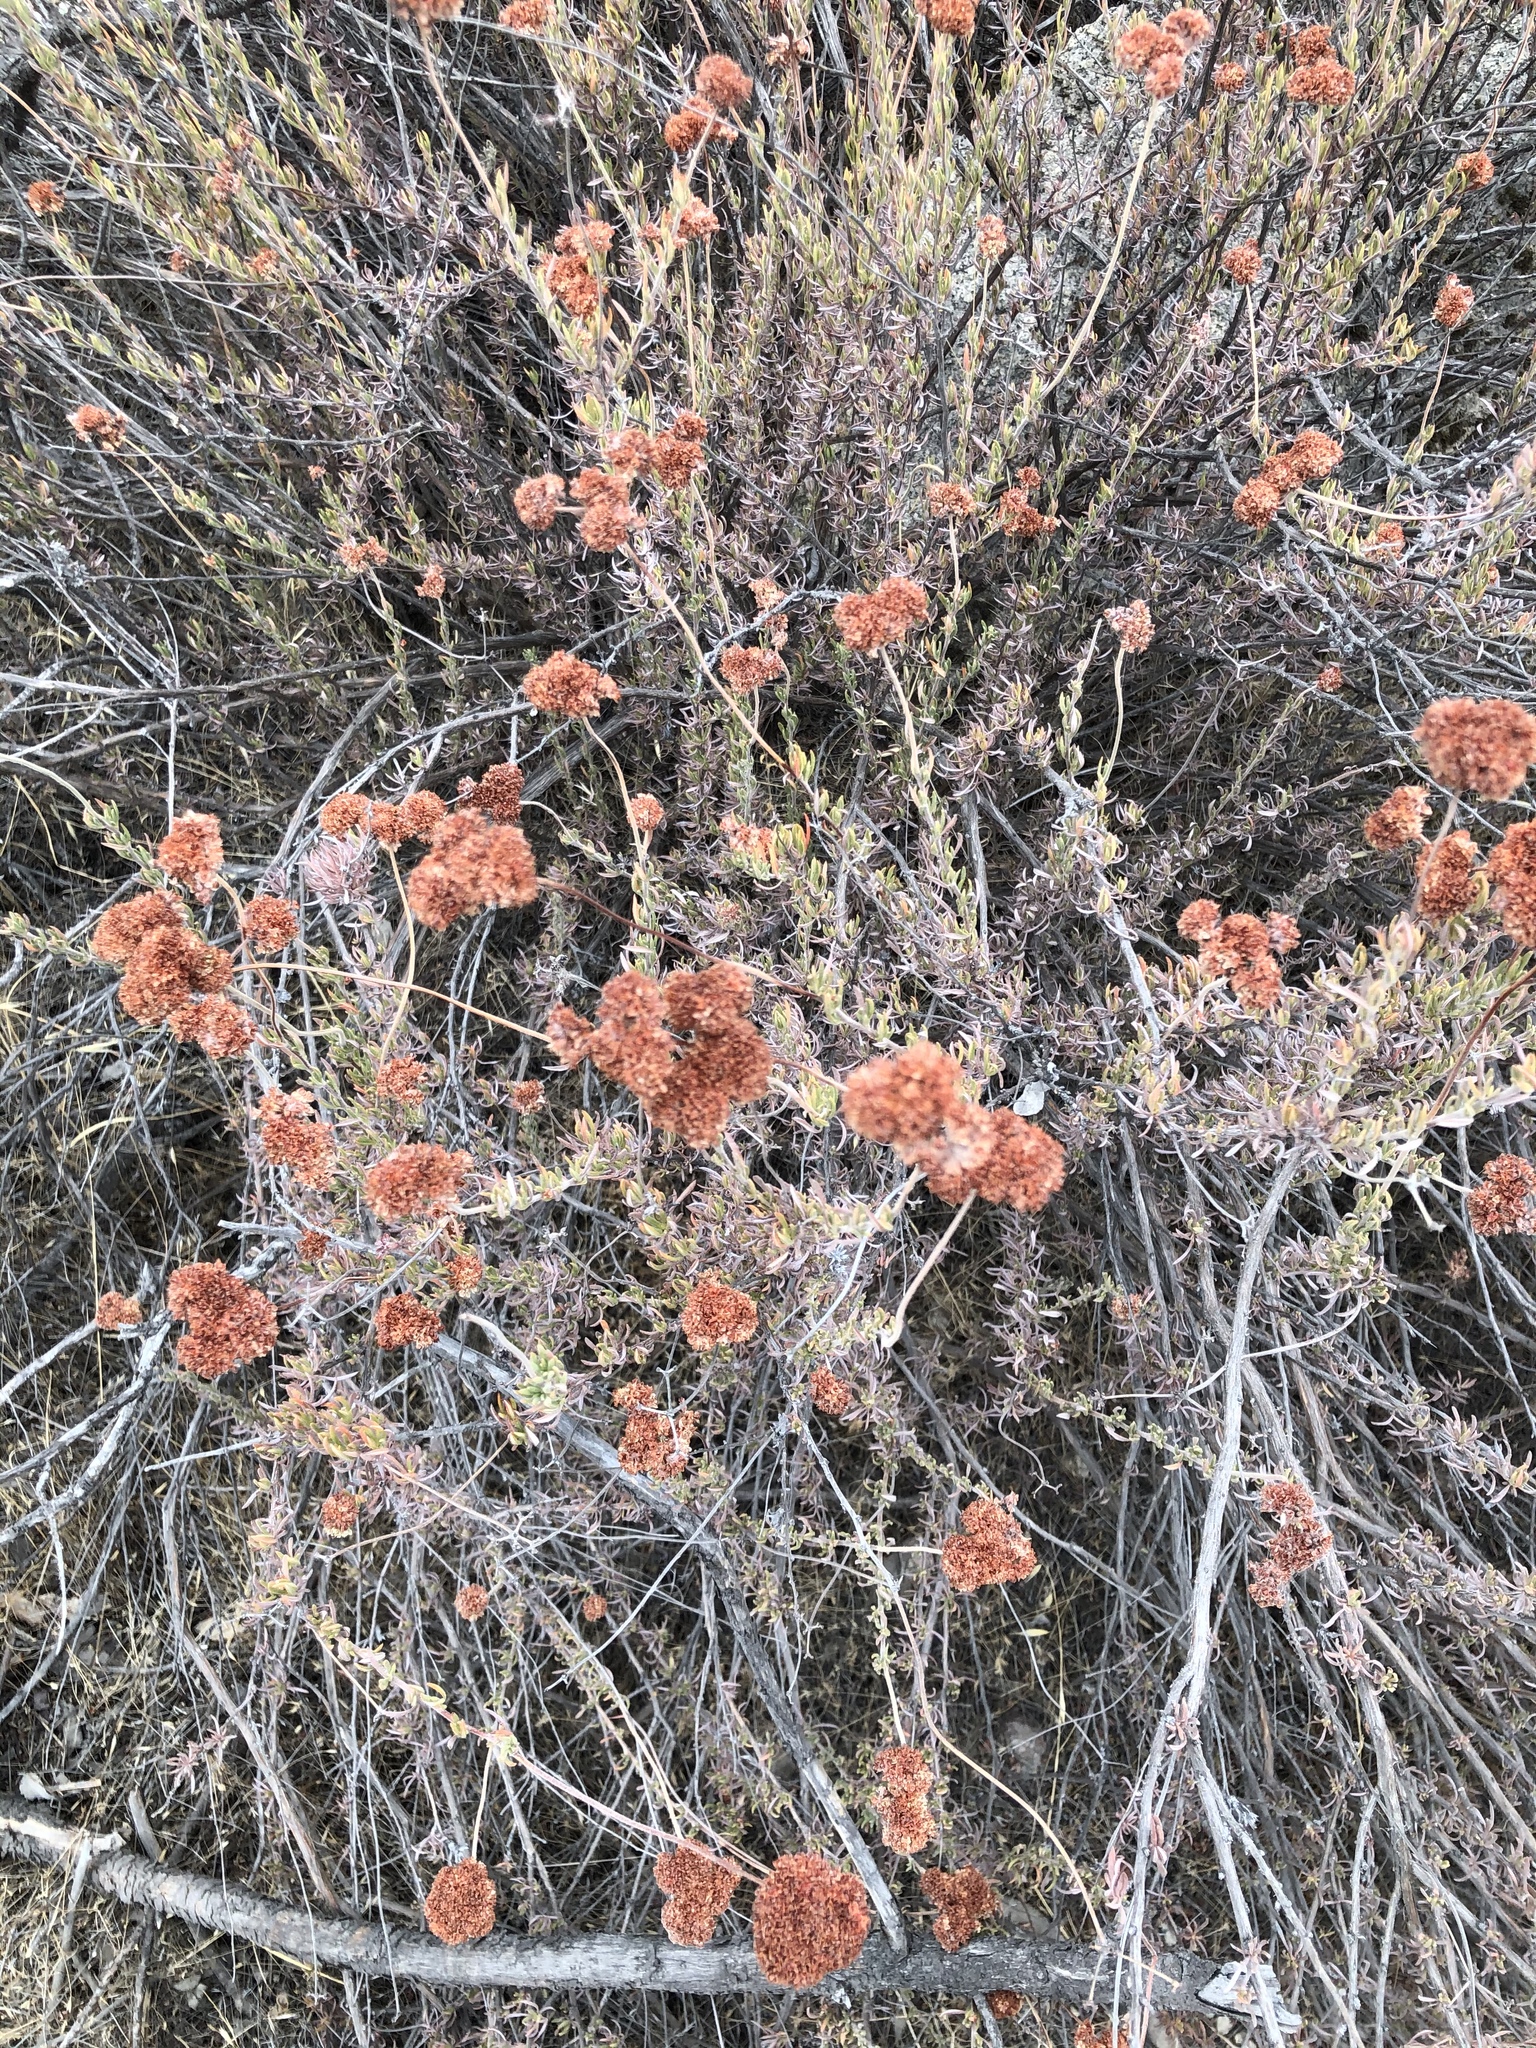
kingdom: Plantae
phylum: Tracheophyta
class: Magnoliopsida
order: Caryophyllales
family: Polygonaceae
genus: Eriogonum
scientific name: Eriogonum fasciculatum
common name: California wild buckwheat
